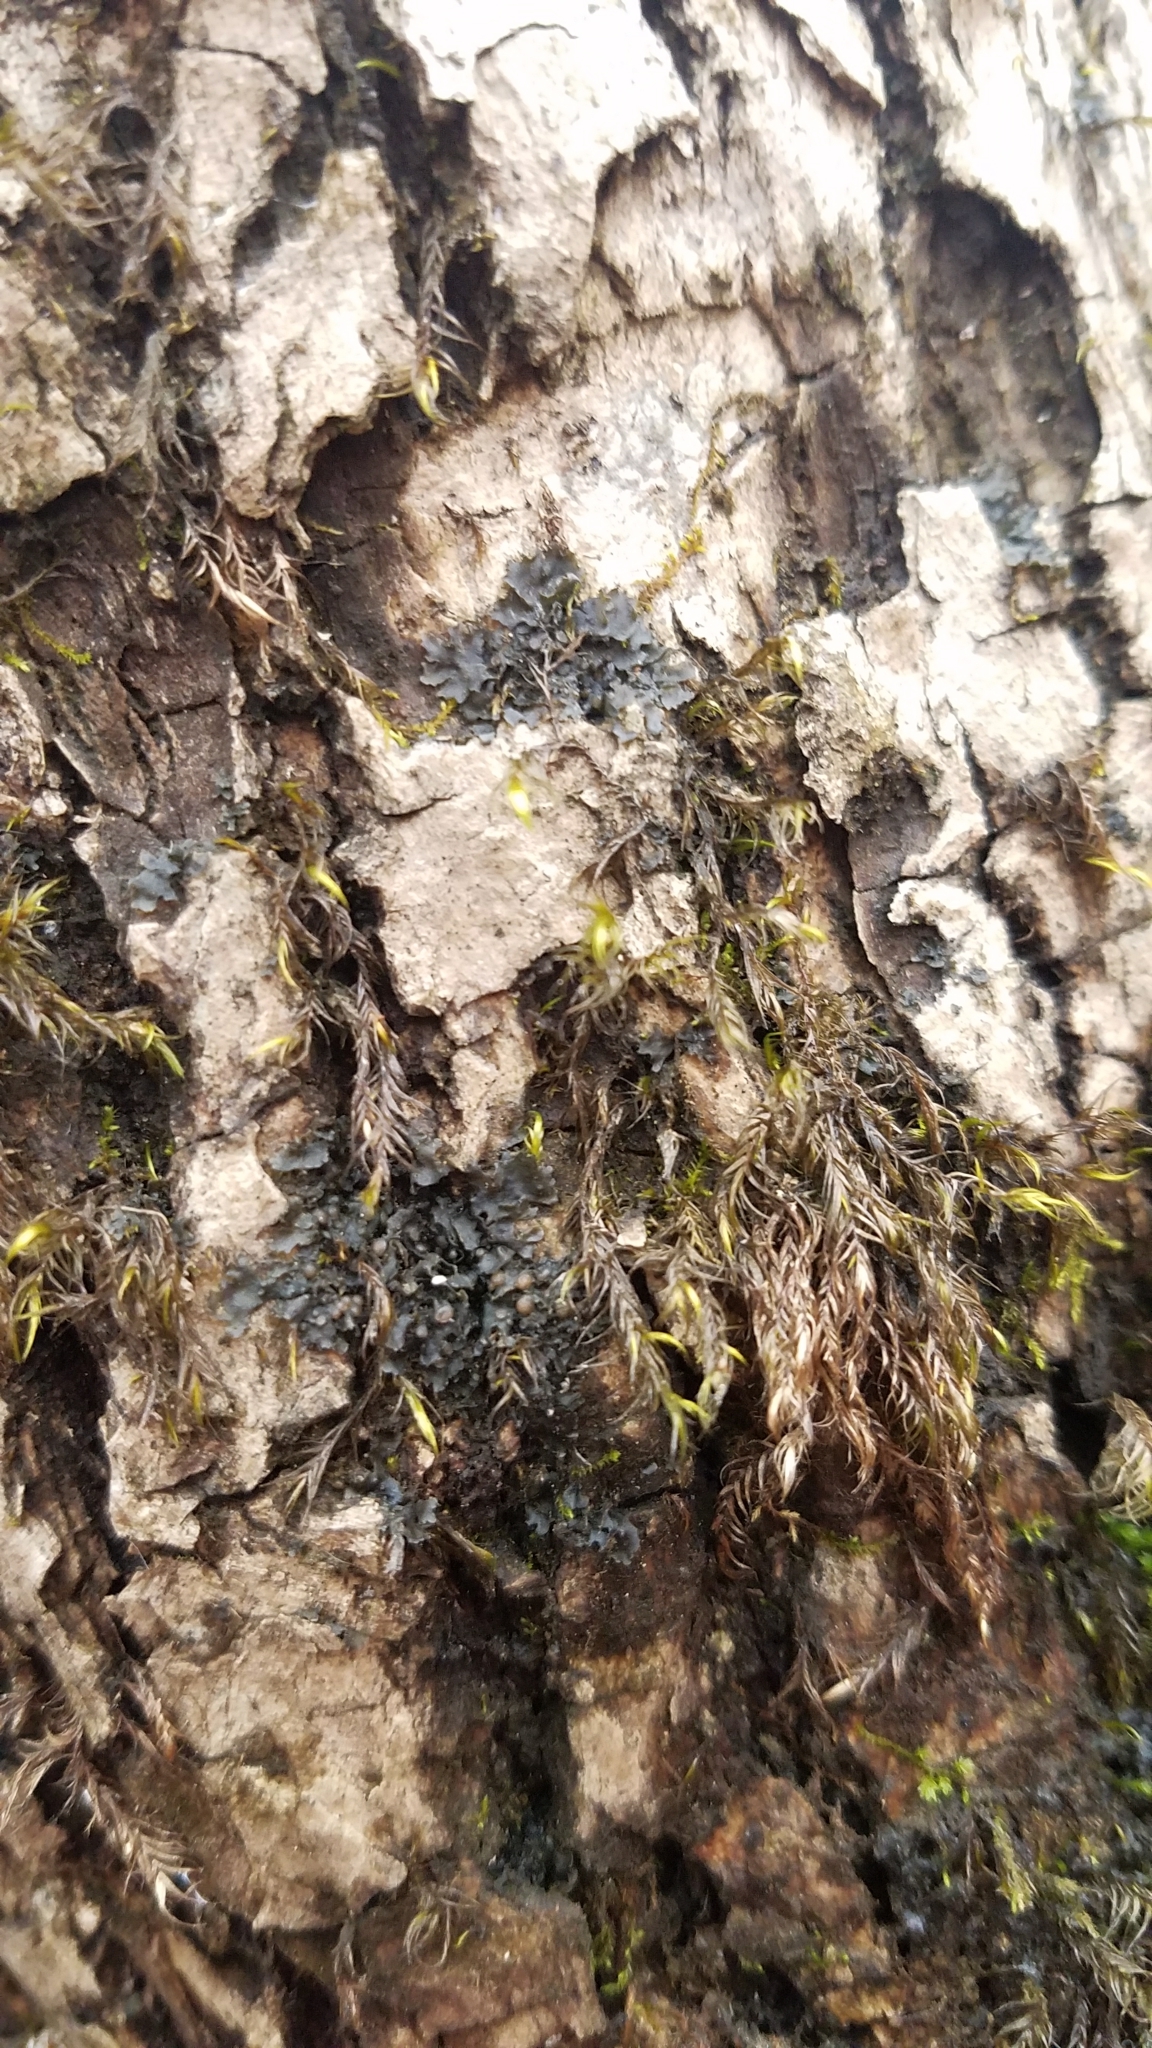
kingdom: Fungi
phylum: Ascomycota
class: Lecanoromycetes
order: Peltigerales
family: Collemataceae
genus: Leptogium
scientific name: Leptogium rivulare
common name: Flooded jellyskin lichen
